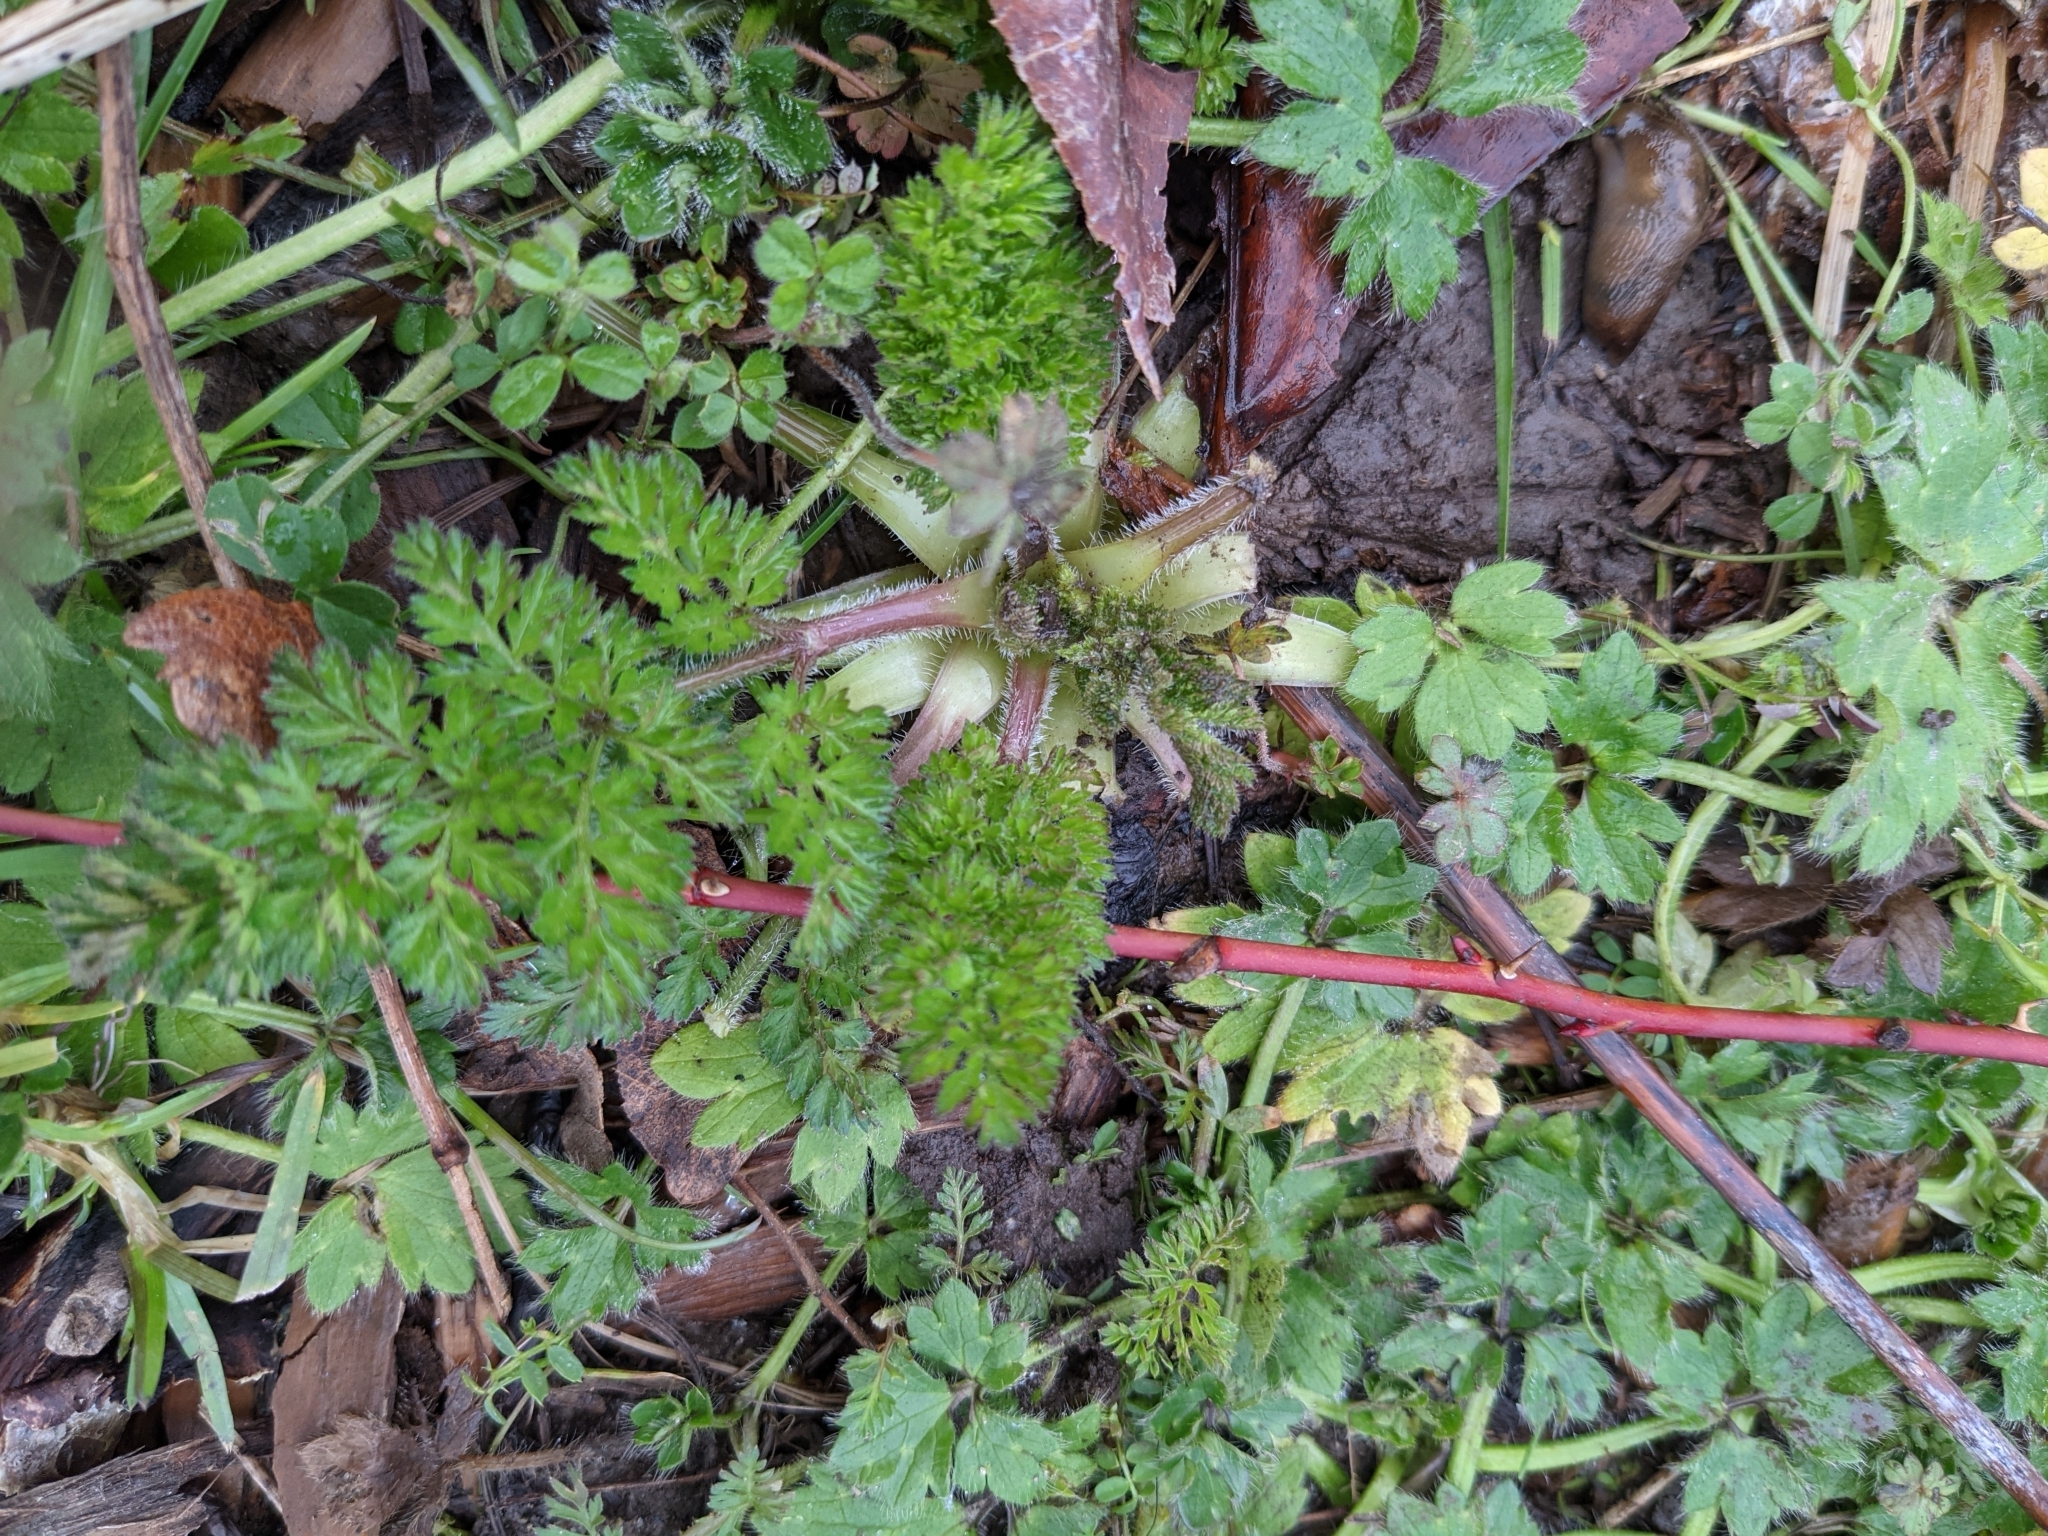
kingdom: Plantae
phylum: Tracheophyta
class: Magnoliopsida
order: Apiales
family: Apiaceae
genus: Daucus
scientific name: Daucus carota
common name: Wild carrot
